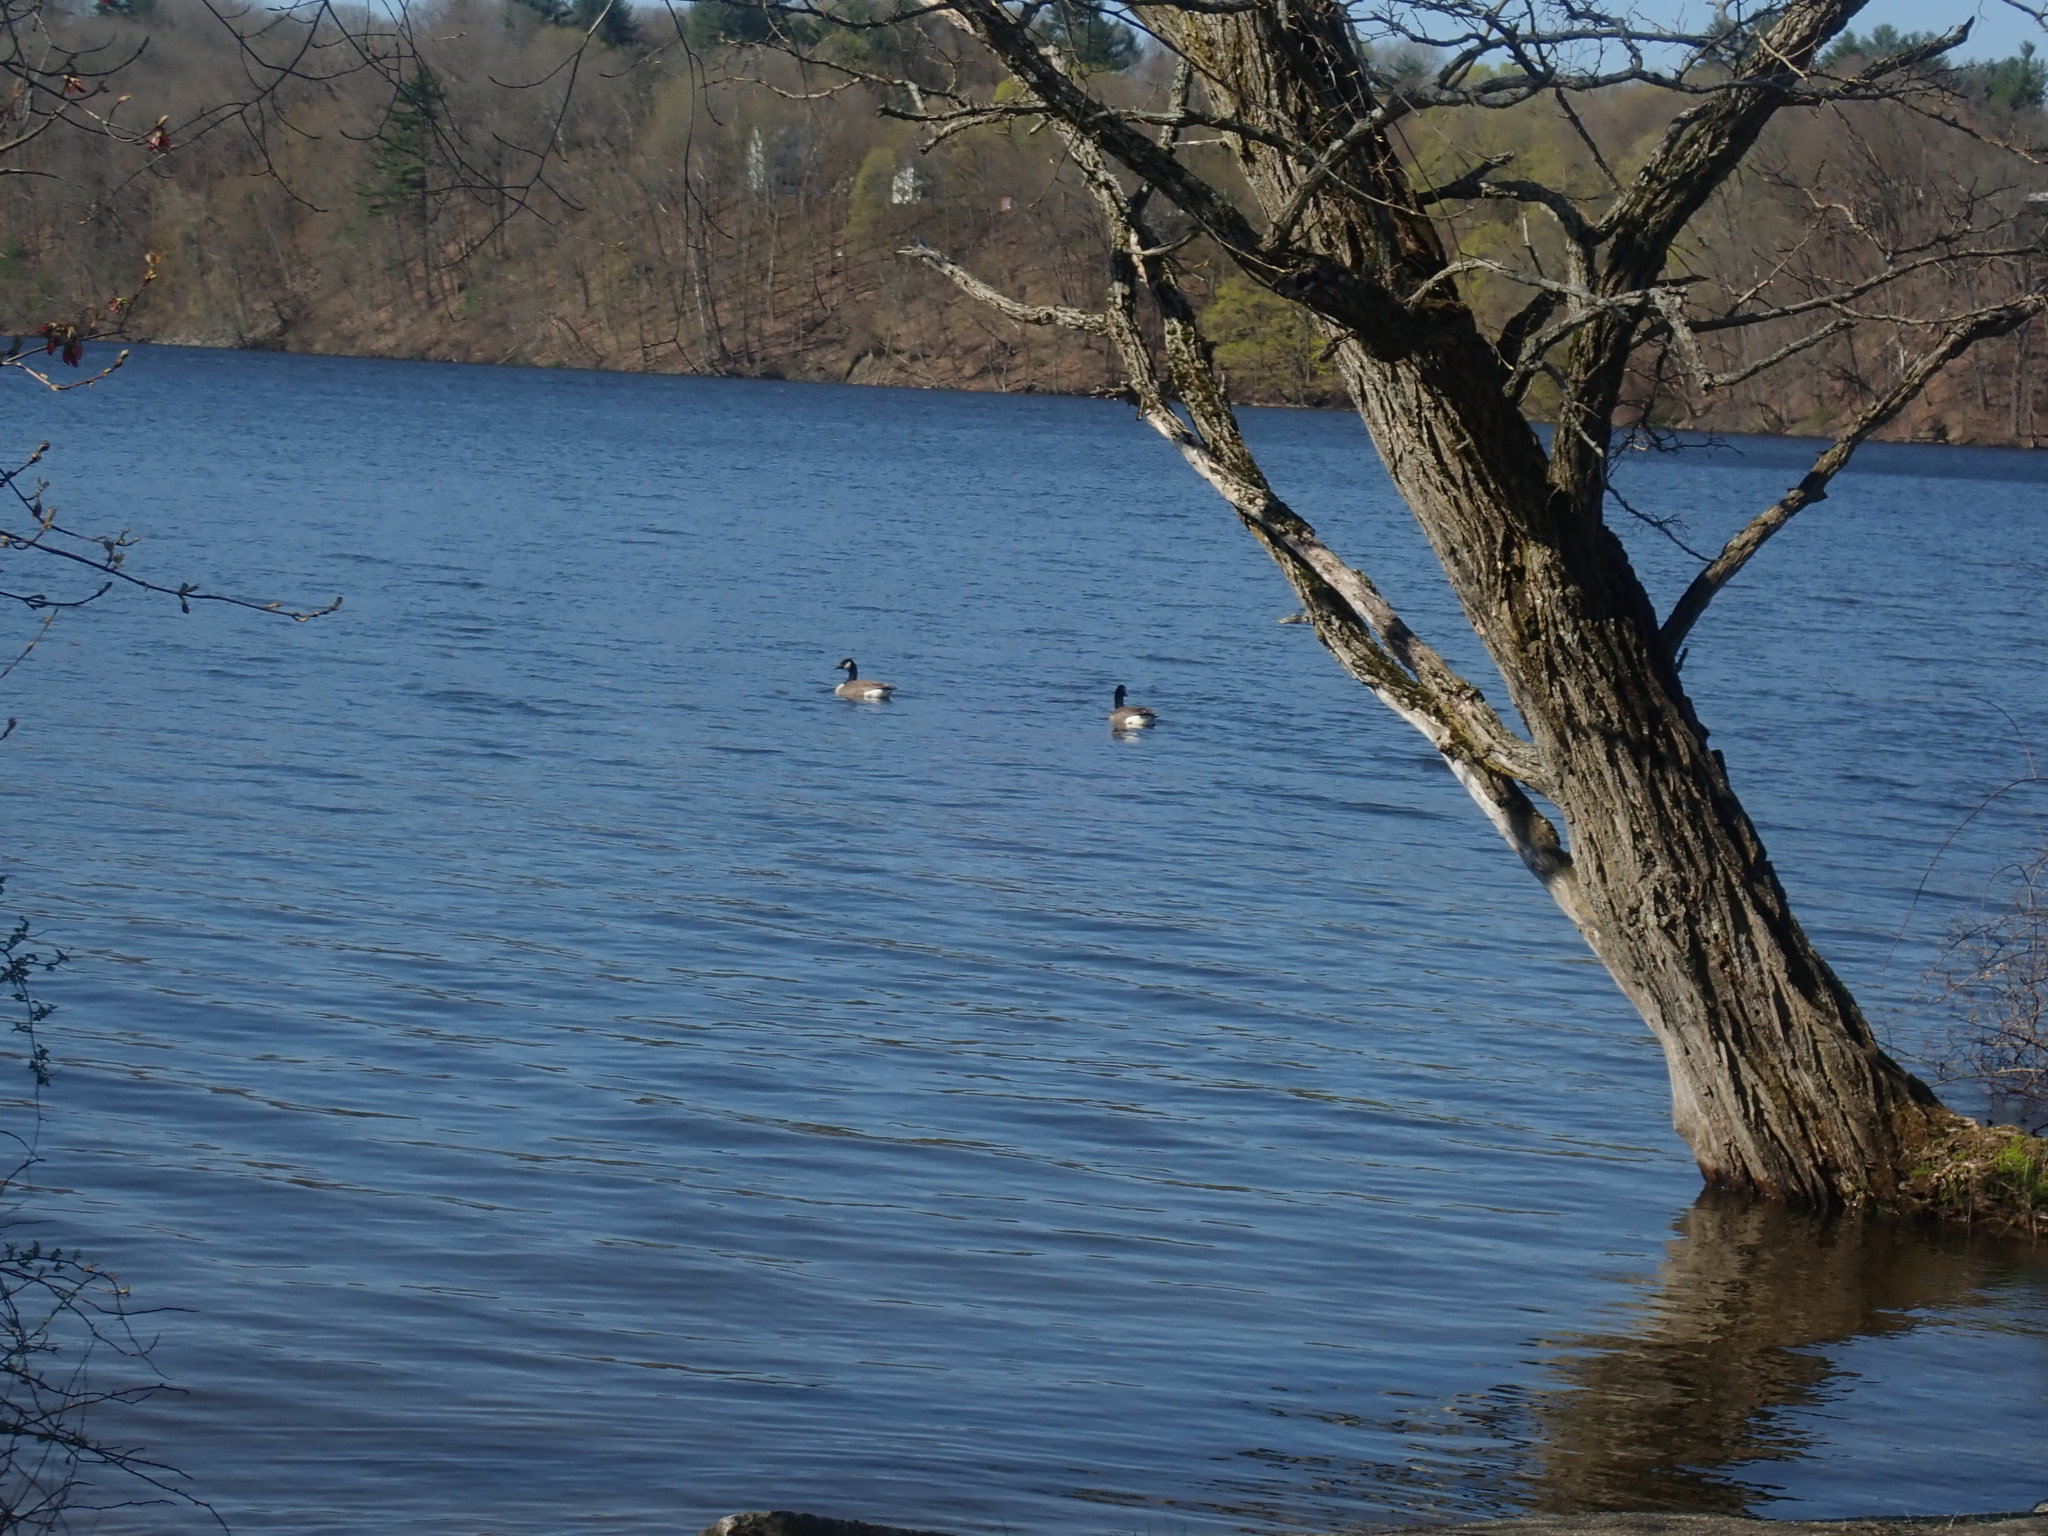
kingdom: Animalia
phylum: Chordata
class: Aves
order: Anseriformes
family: Anatidae
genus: Branta
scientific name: Branta canadensis
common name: Canada goose
